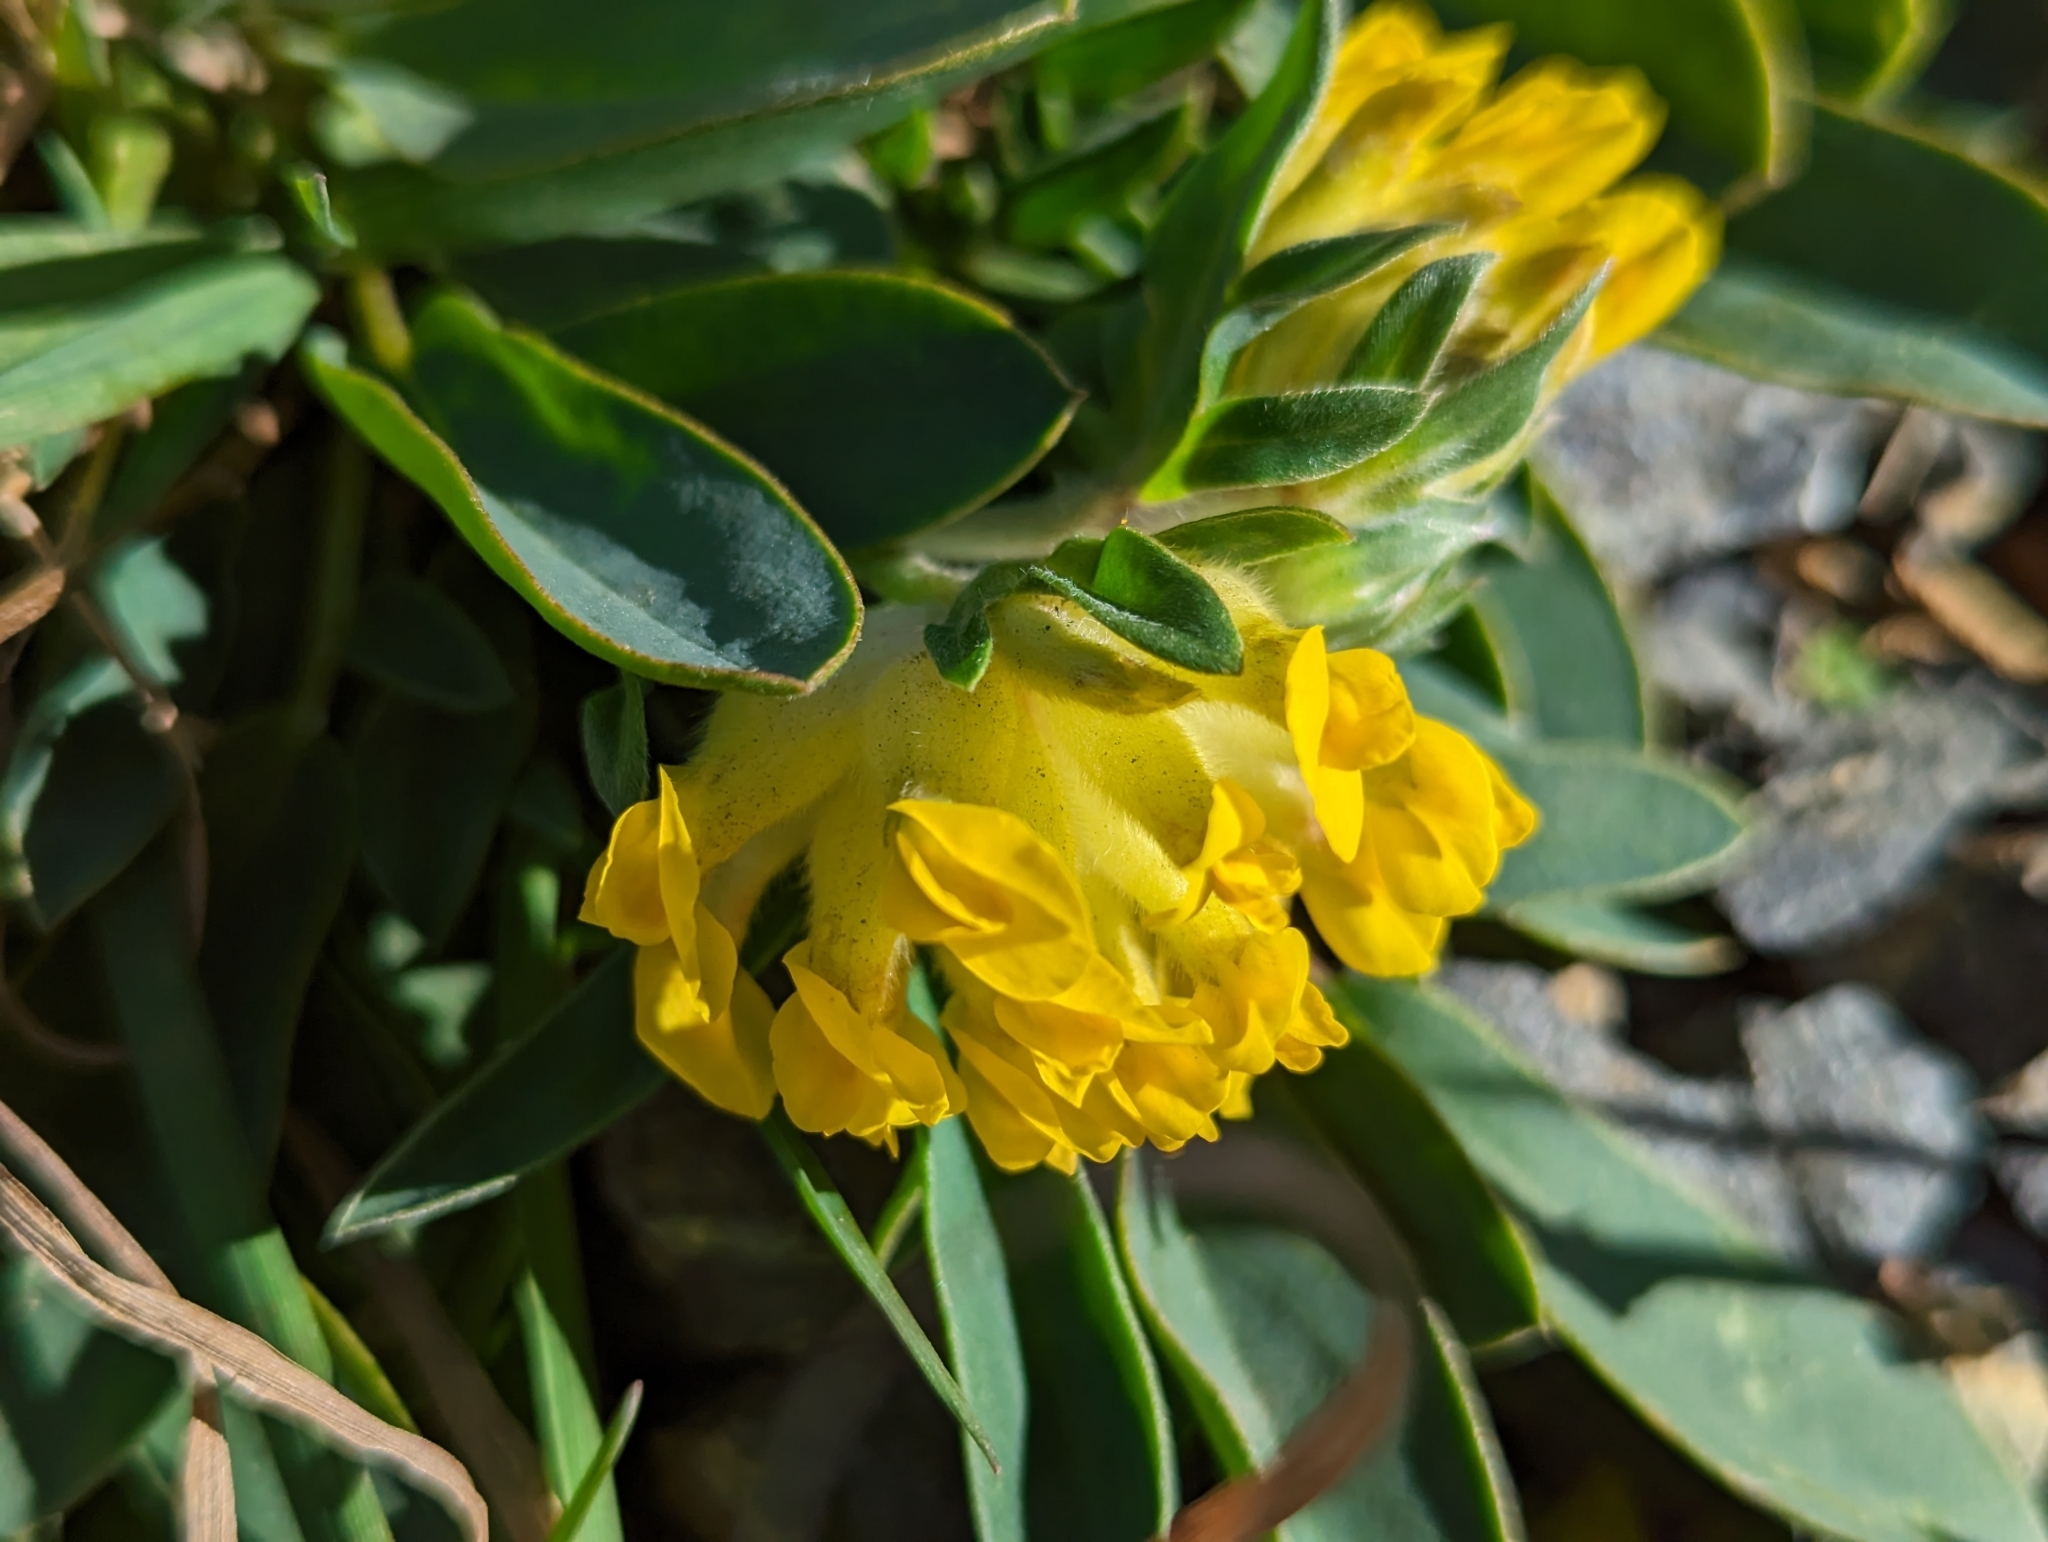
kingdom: Plantae
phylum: Tracheophyta
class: Magnoliopsida
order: Fabales
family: Fabaceae
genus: Anthyllis
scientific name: Anthyllis vulneraria
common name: Kidney vetch
